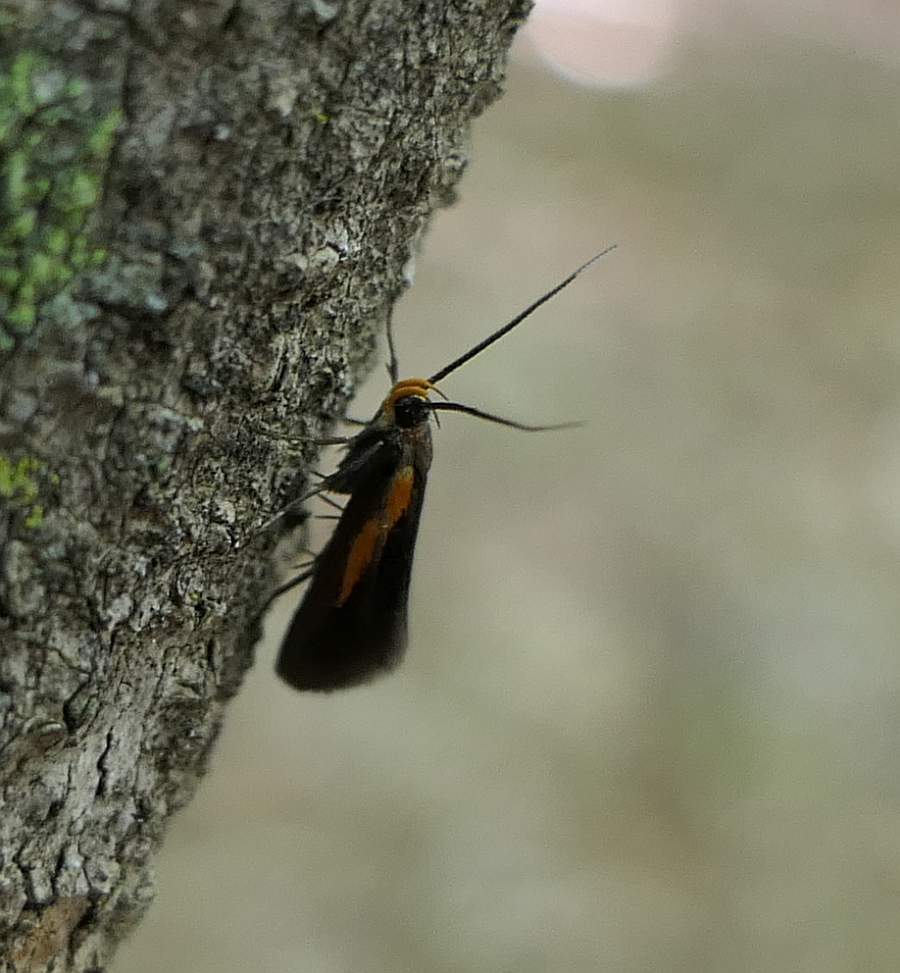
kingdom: Animalia
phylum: Arthropoda
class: Insecta
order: Lepidoptera
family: Oecophoridae
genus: Mathildana
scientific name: Mathildana newmanella
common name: Newman's mathildana moth
